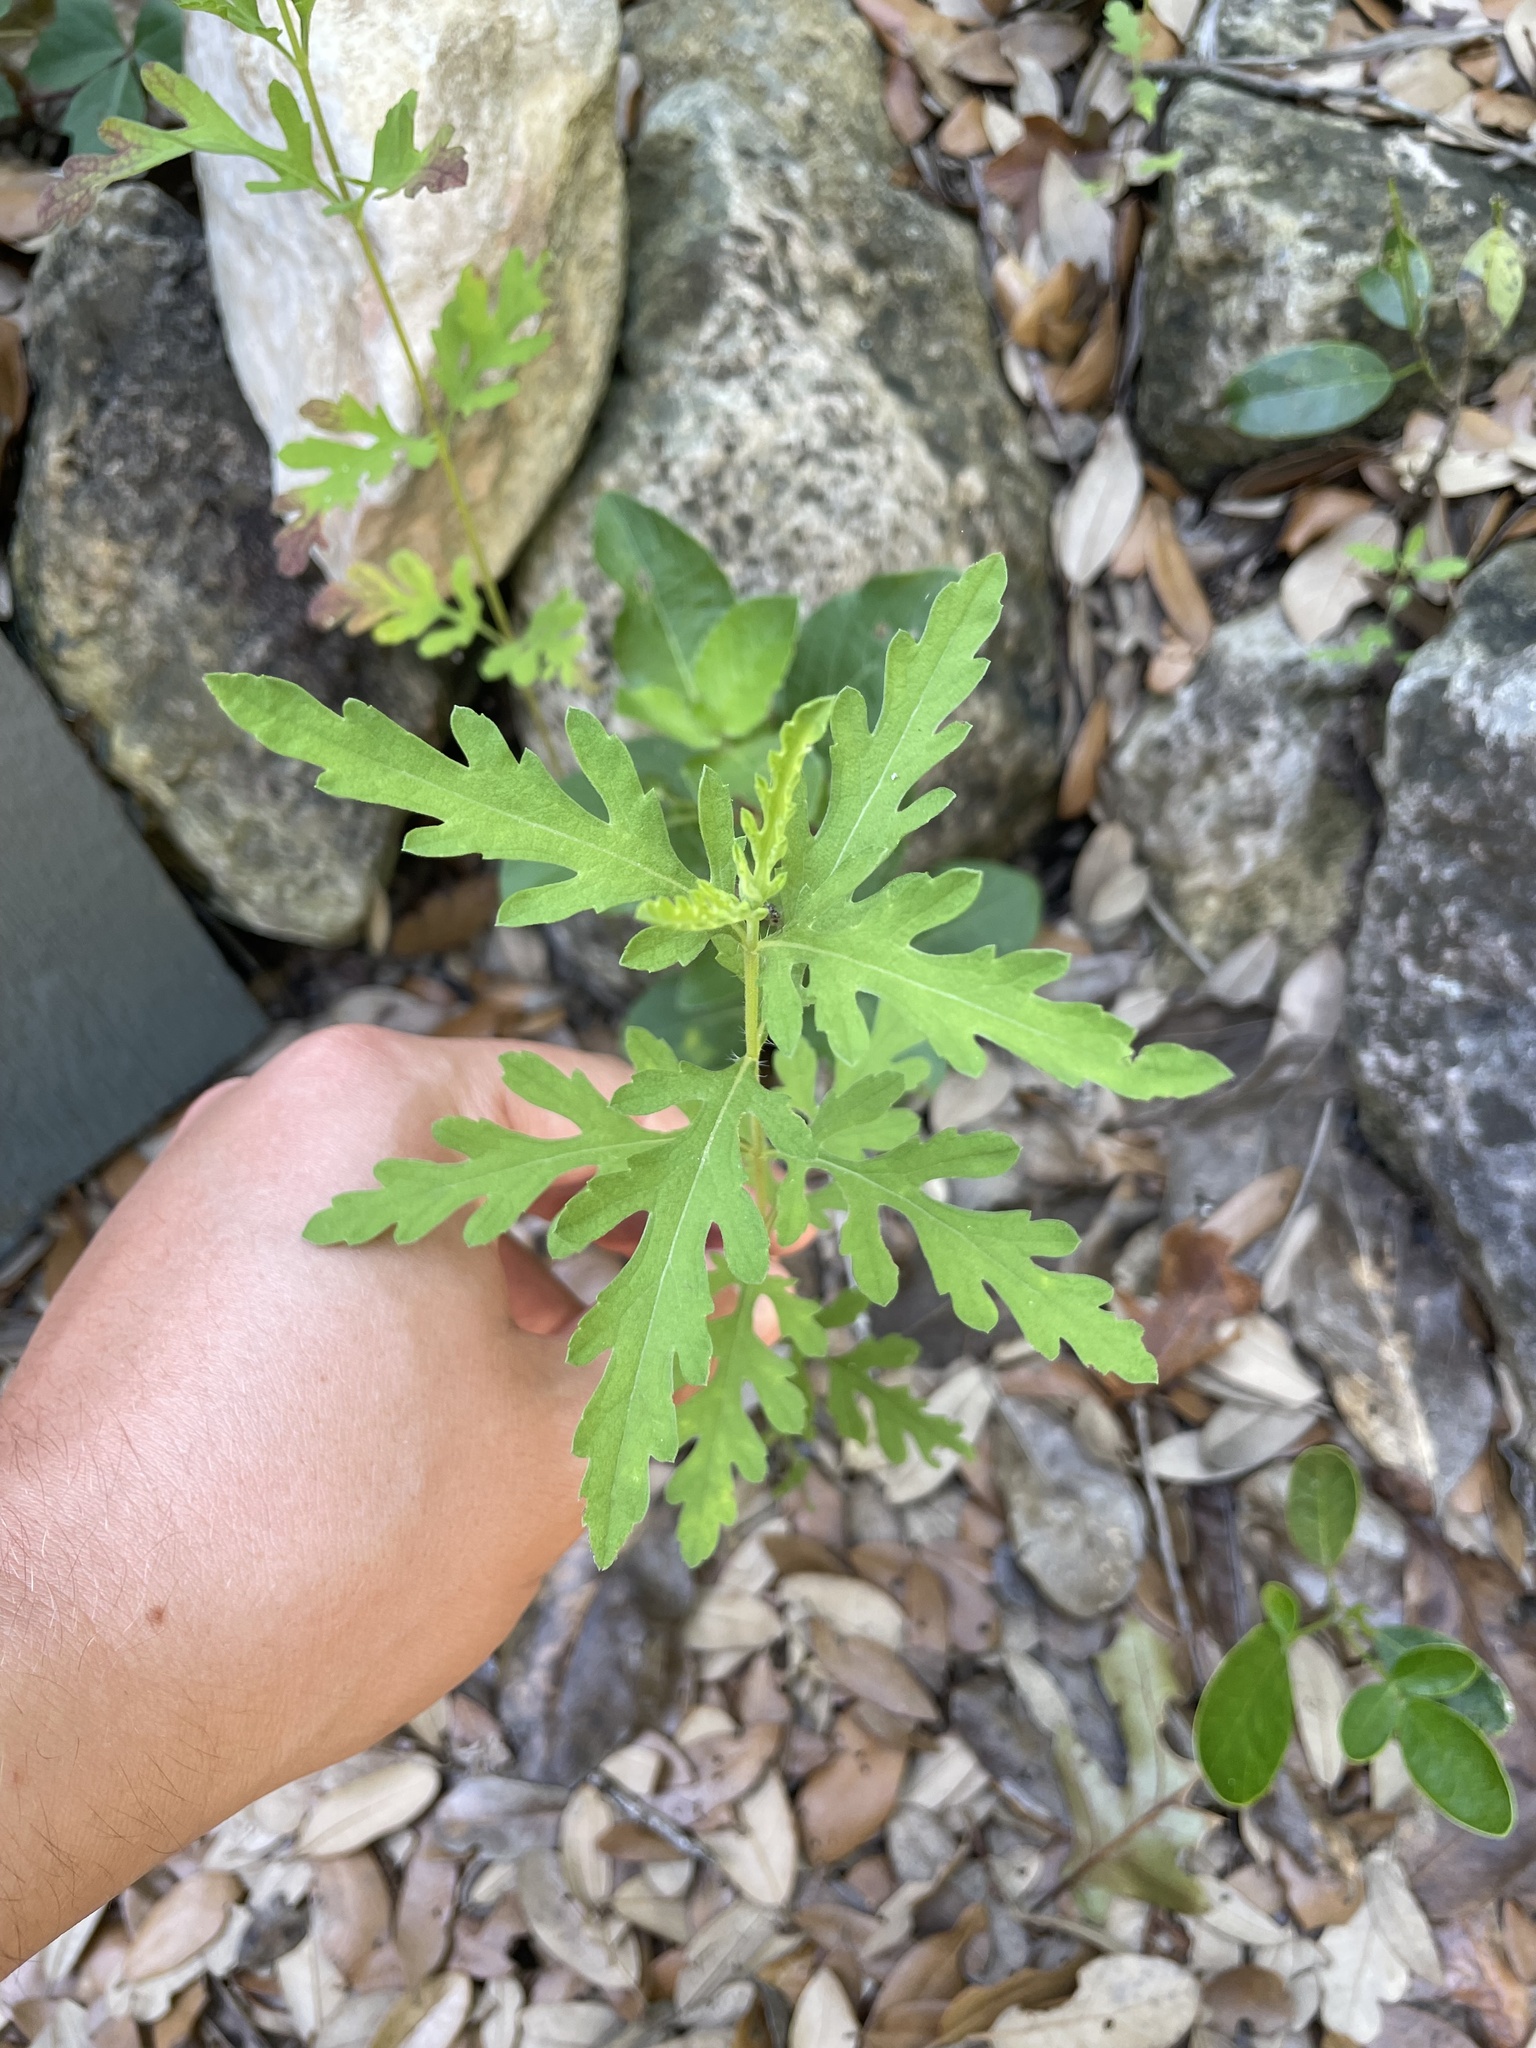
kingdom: Plantae
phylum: Tracheophyta
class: Magnoliopsida
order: Asterales
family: Asteraceae
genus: Ambrosia
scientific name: Ambrosia psilostachya
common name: Perennial ragweed
